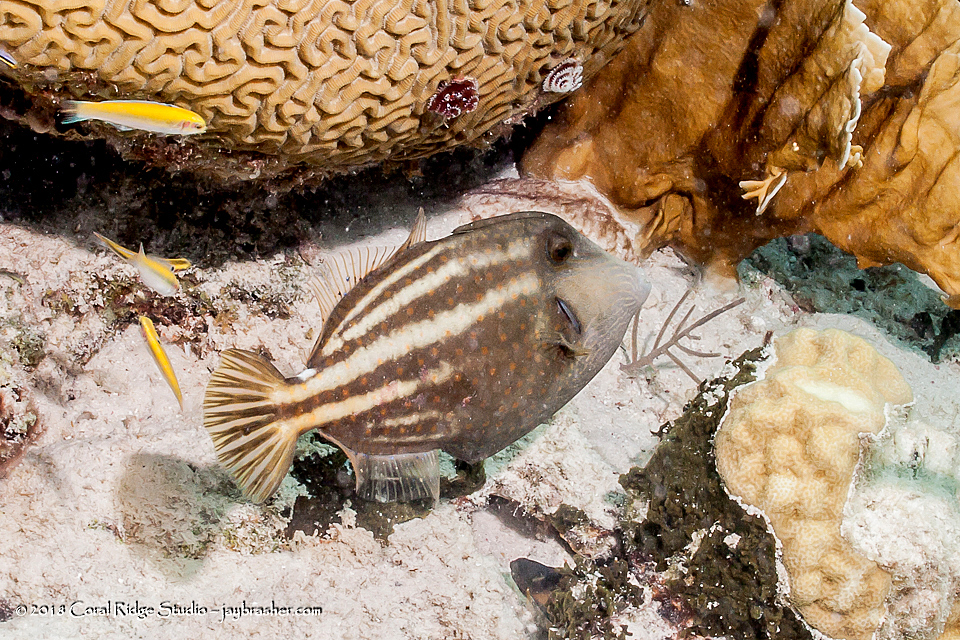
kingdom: Animalia
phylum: Chordata
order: Tetraodontiformes
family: Monacanthidae
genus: Cantherhines
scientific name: Cantherhines pullus
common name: Orangespotted filefish
